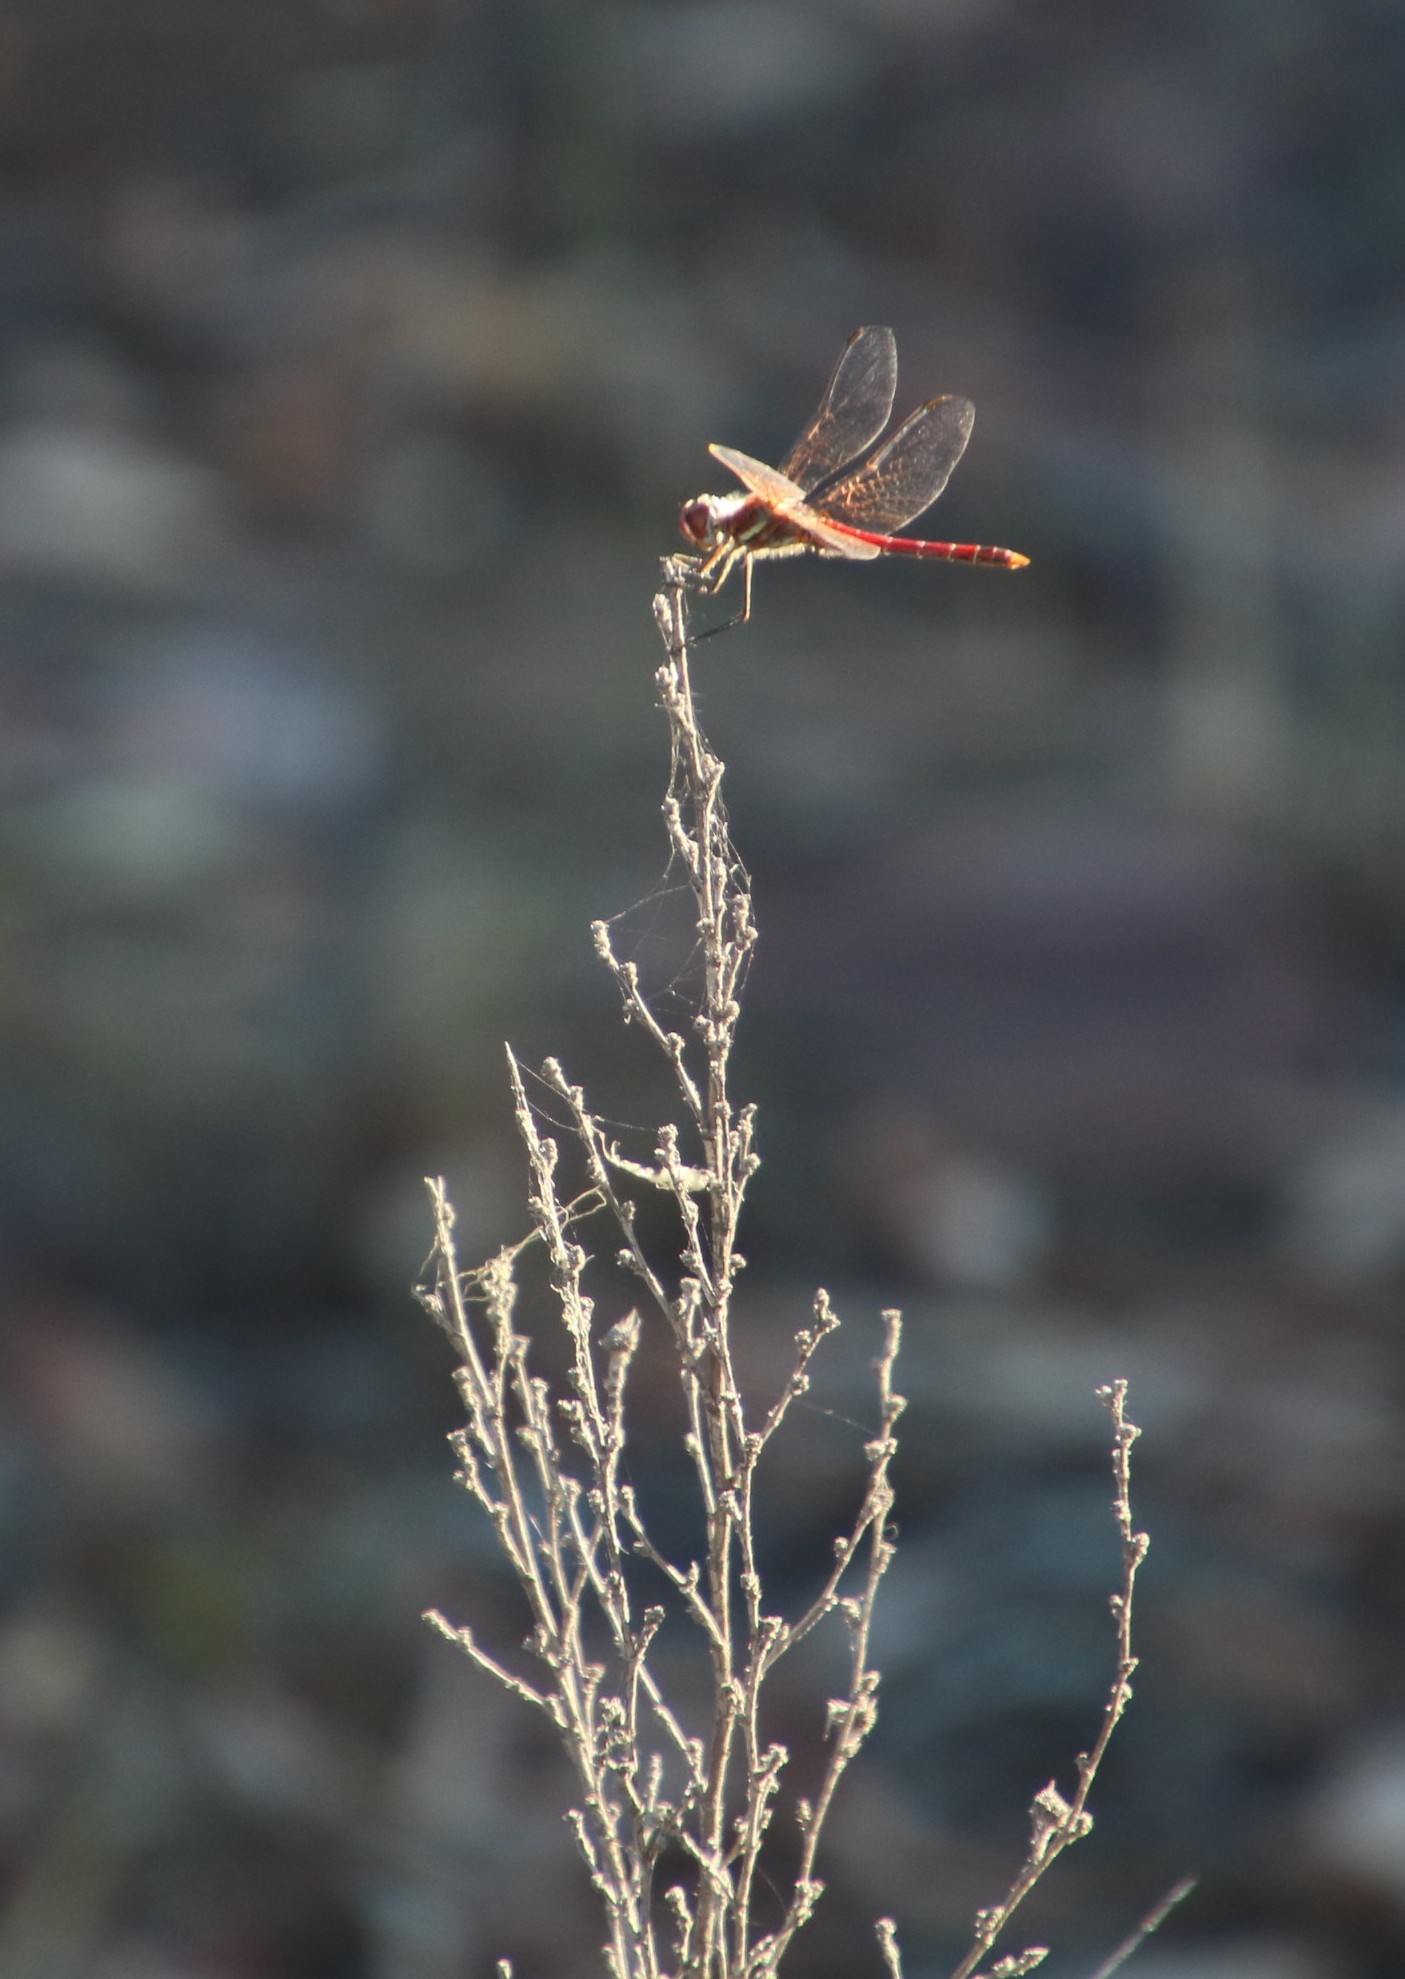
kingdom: Animalia
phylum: Arthropoda
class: Insecta
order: Odonata
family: Libellulidae
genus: Sympetrum
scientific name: Sympetrum fonscolombii
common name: Red-veined darter
